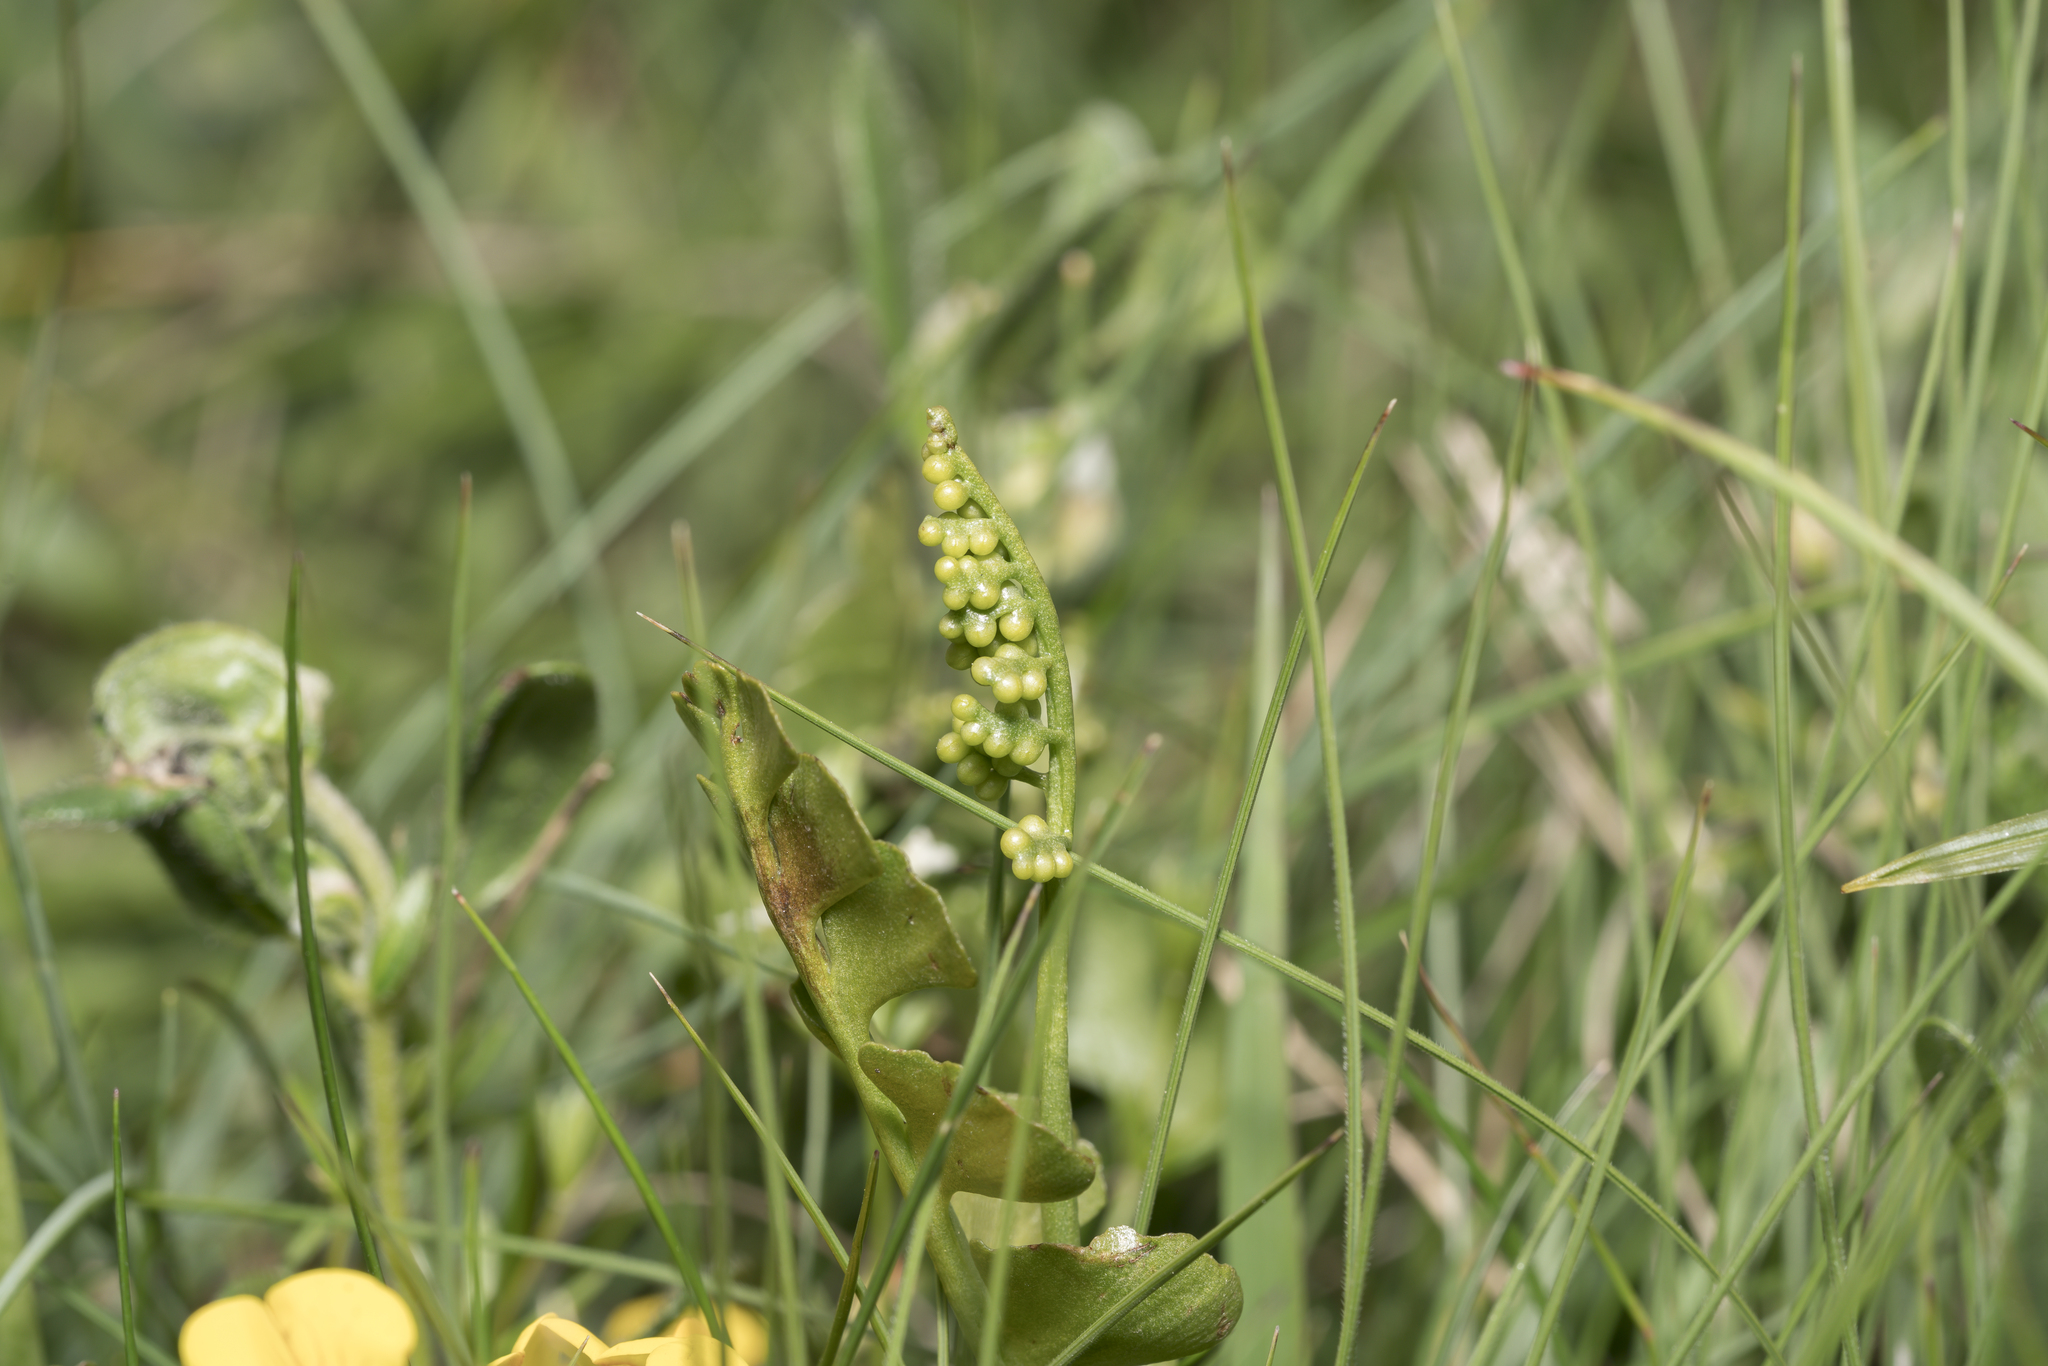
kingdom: Plantae
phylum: Tracheophyta
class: Polypodiopsida
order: Ophioglossales
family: Ophioglossaceae
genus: Botrychium
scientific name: Botrychium lunaria
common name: Moonwort
